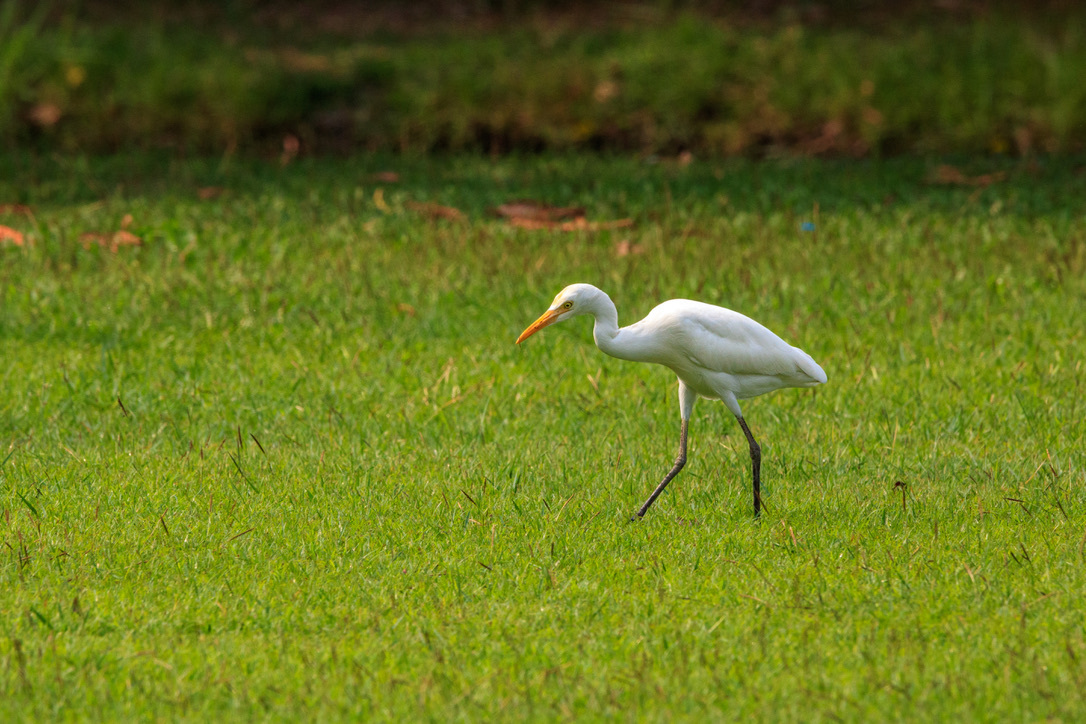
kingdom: Animalia
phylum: Chordata
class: Aves
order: Pelecaniformes
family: Ardeidae
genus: Bubulcus
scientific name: Bubulcus coromandus
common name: Eastern cattle egret
